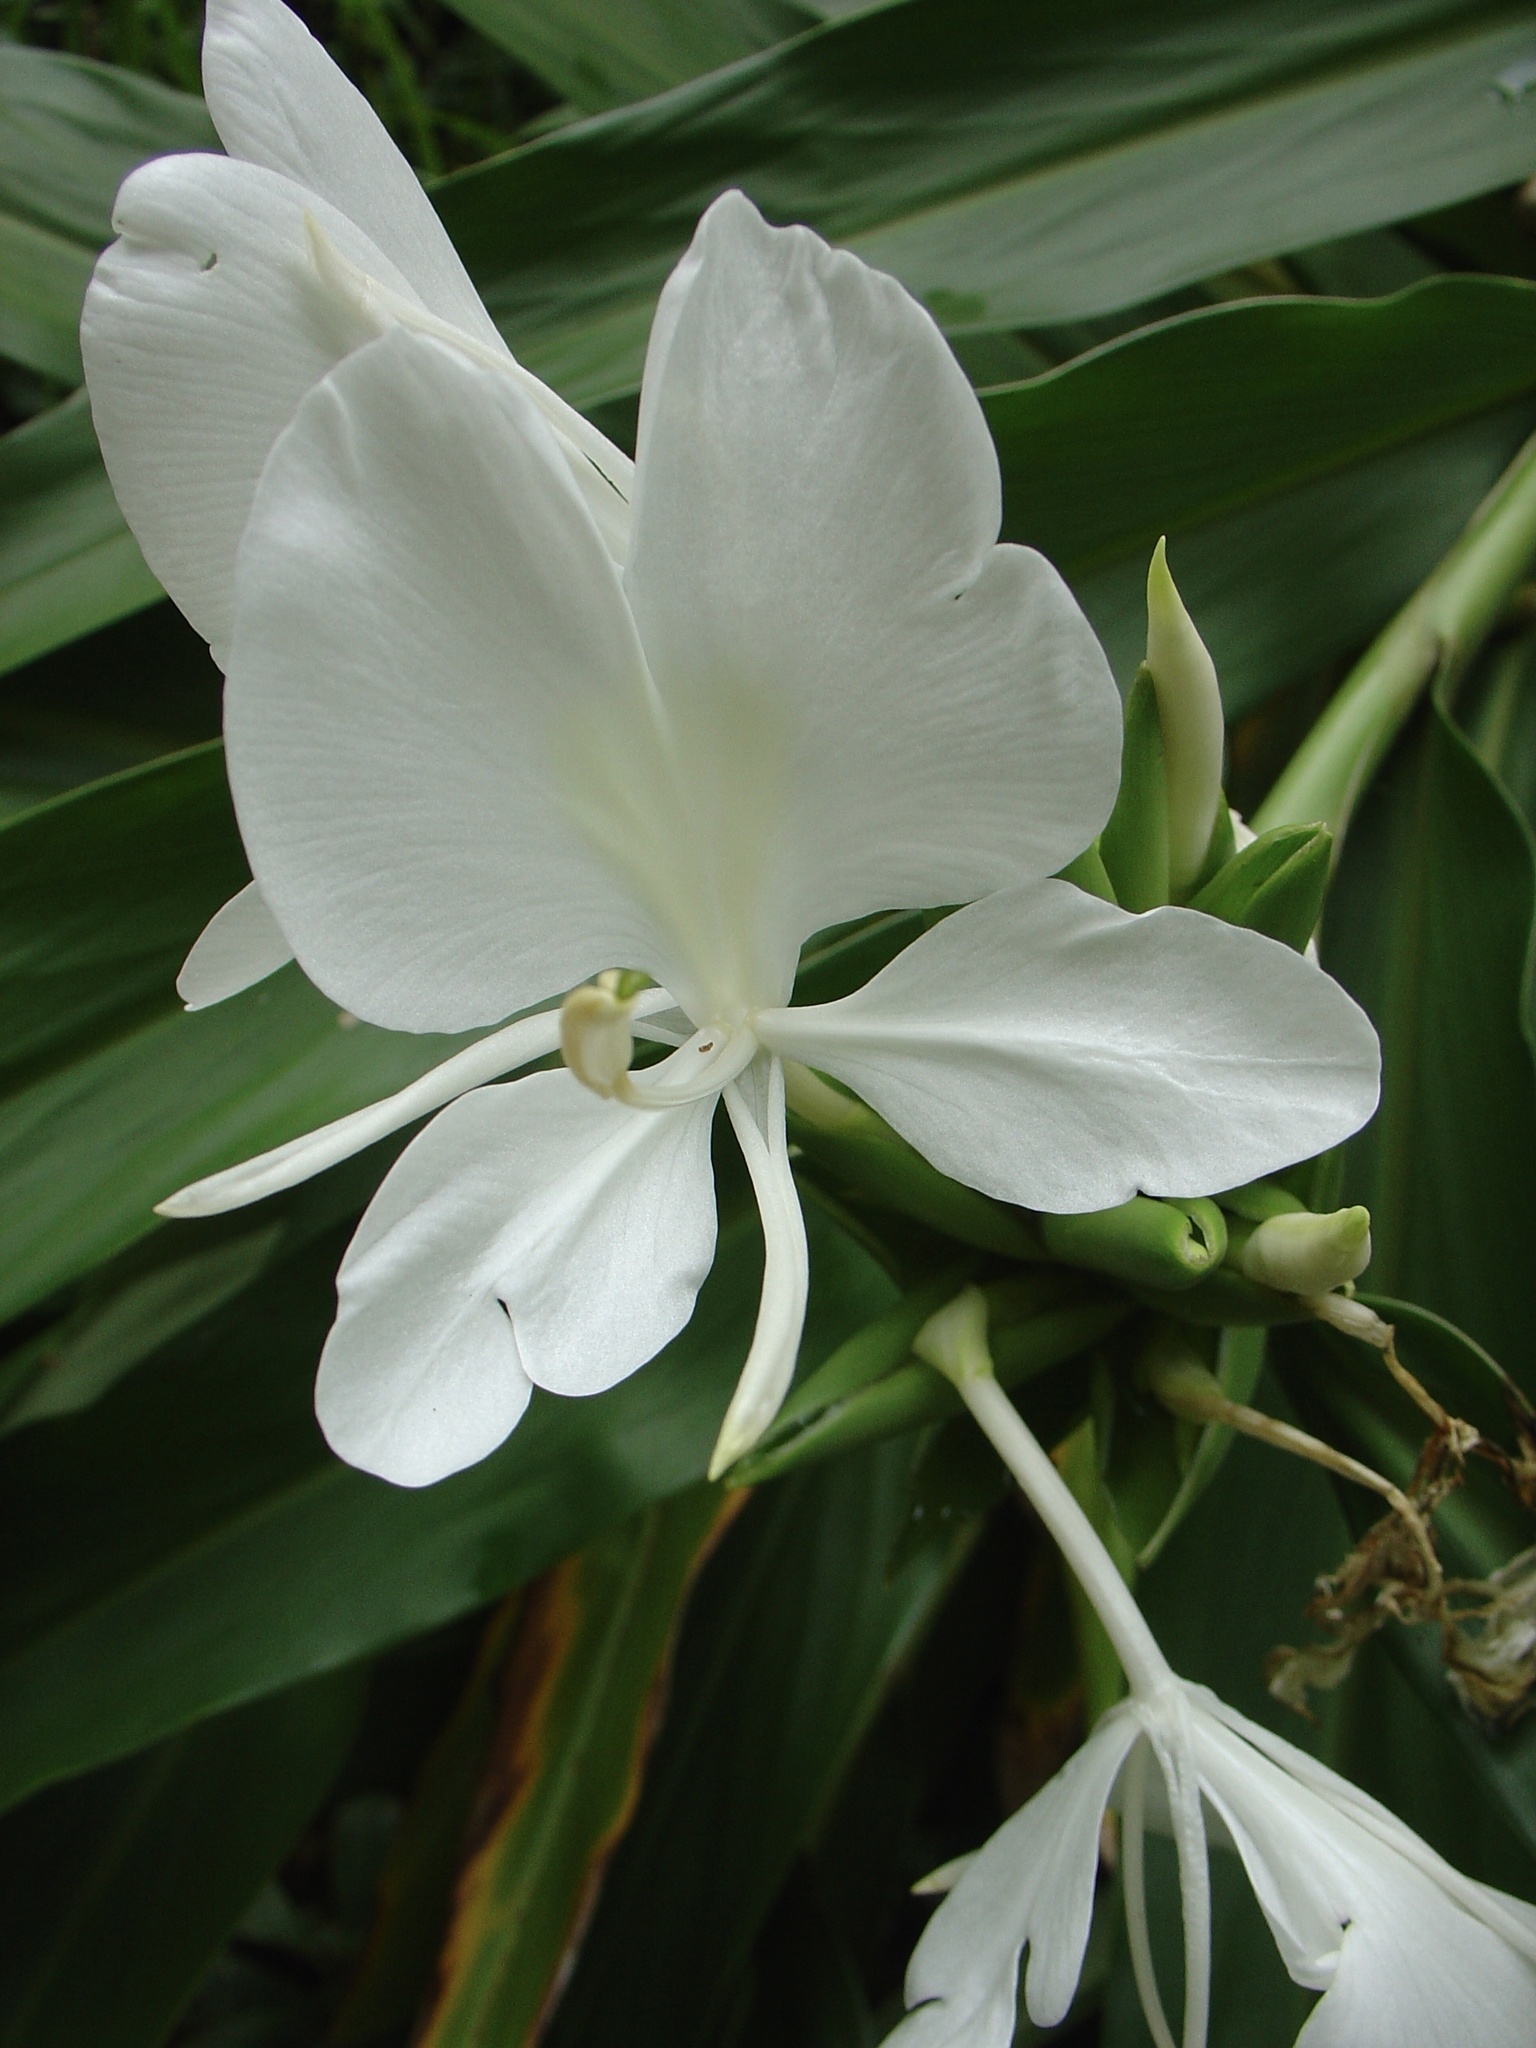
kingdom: Plantae
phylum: Tracheophyta
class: Liliopsida
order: Zingiberales
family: Zingiberaceae
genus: Hedychium
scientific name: Hedychium coronarium
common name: White garland-lily
